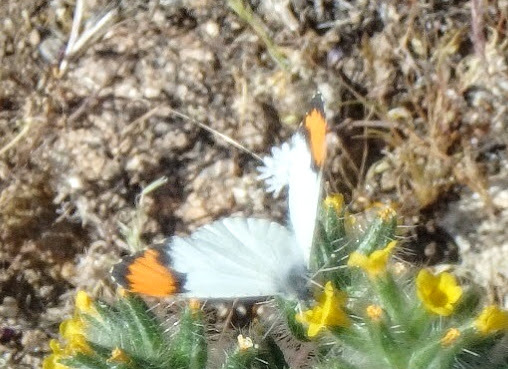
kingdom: Animalia
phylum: Arthropoda
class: Insecta
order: Lepidoptera
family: Pieridae
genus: Anthocharis
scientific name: Anthocharis sara
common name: Sara's orangetip
